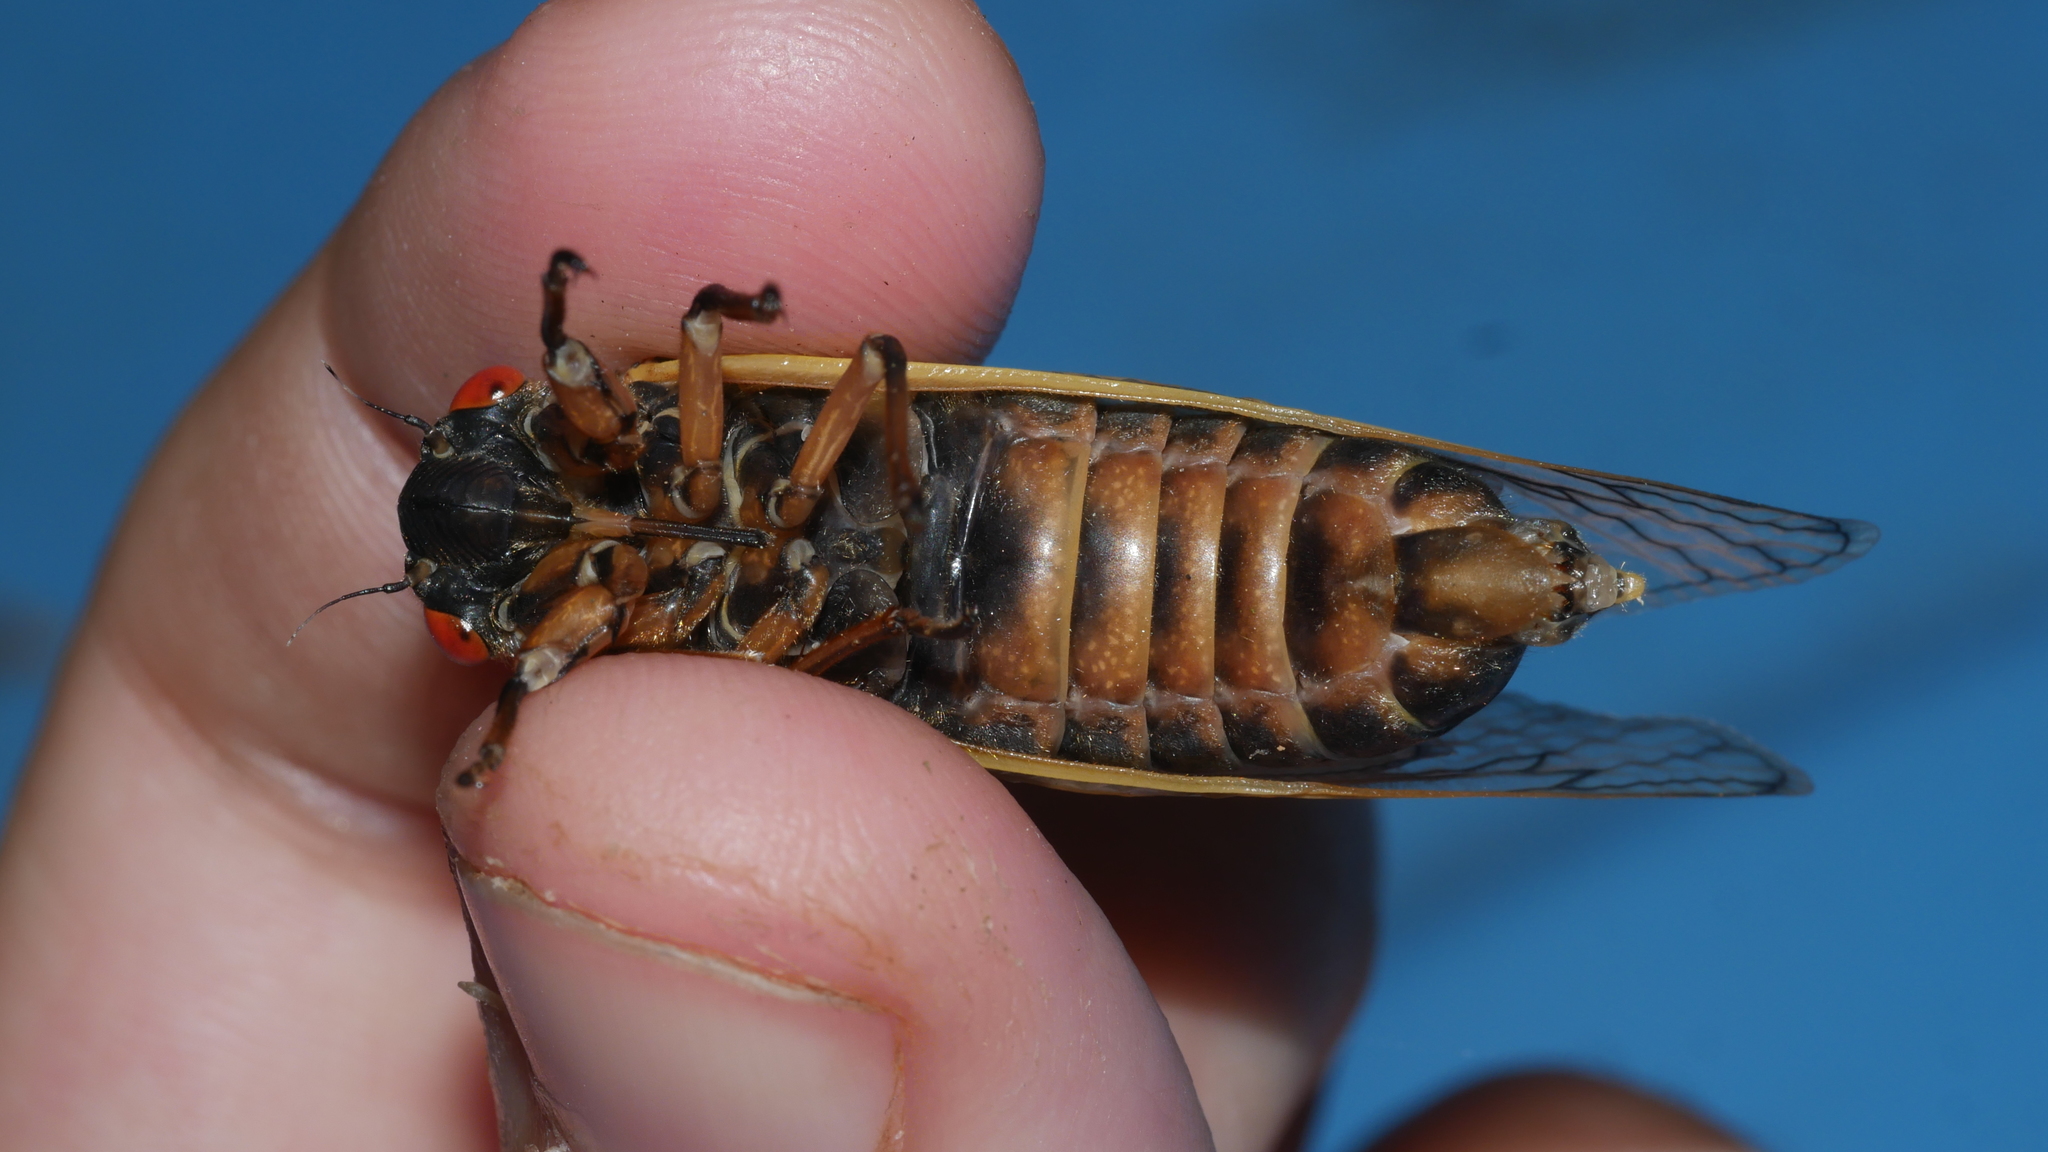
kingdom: Animalia
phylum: Arthropoda
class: Insecta
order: Hemiptera
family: Cicadidae
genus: Magicicada
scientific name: Magicicada septendecim
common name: Periodical cicada
